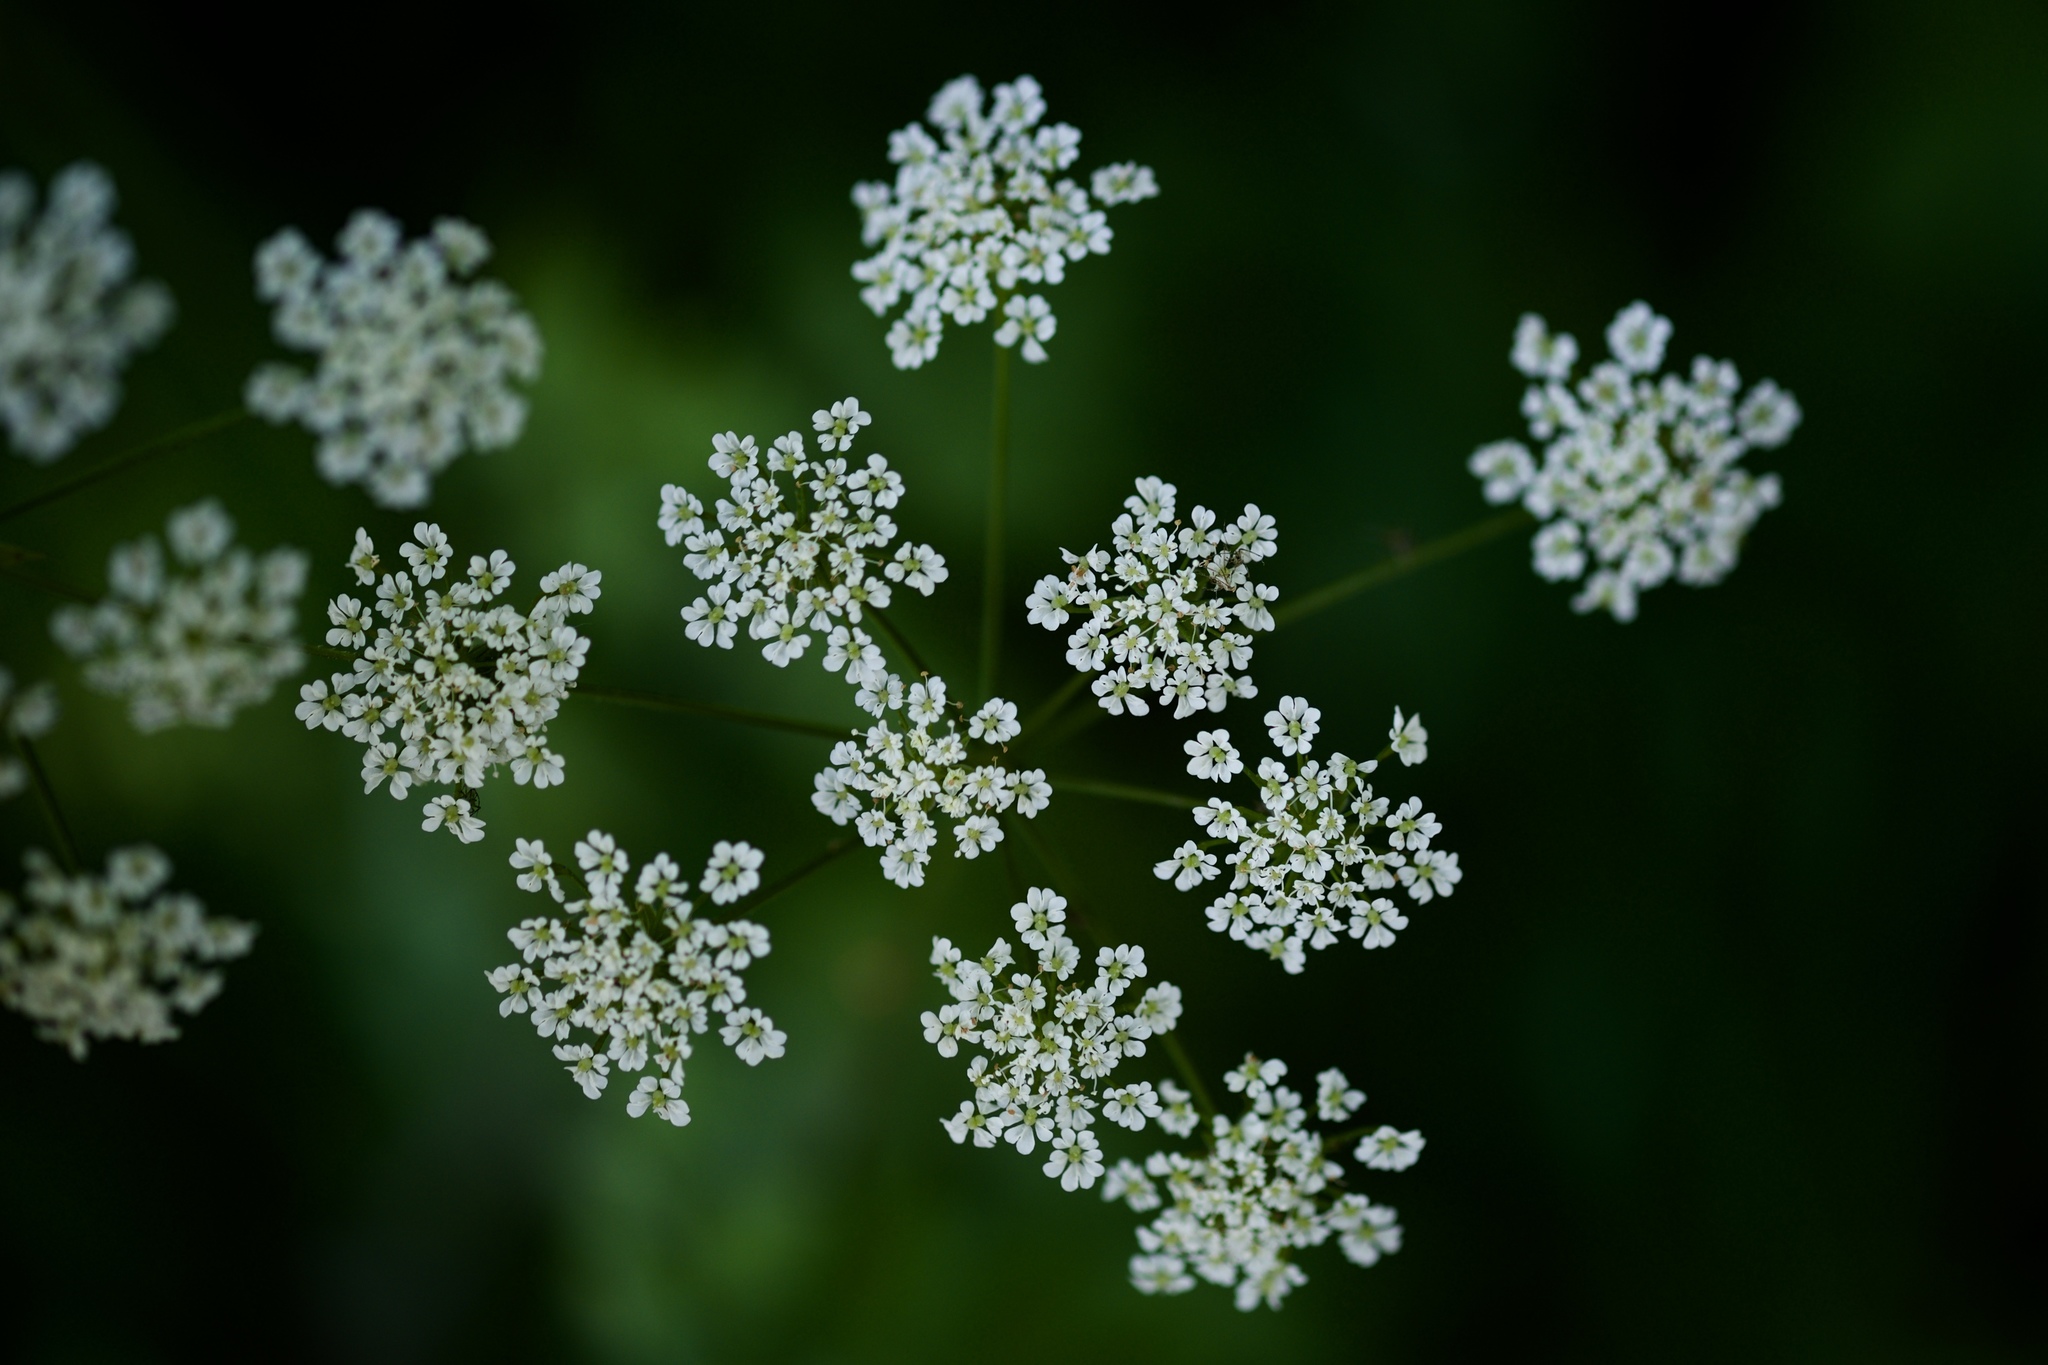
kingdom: Plantae
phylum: Tracheophyta
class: Magnoliopsida
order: Apiales
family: Apiaceae
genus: Chaerophyllum
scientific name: Chaerophyllum temulum
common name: Rough chervil
